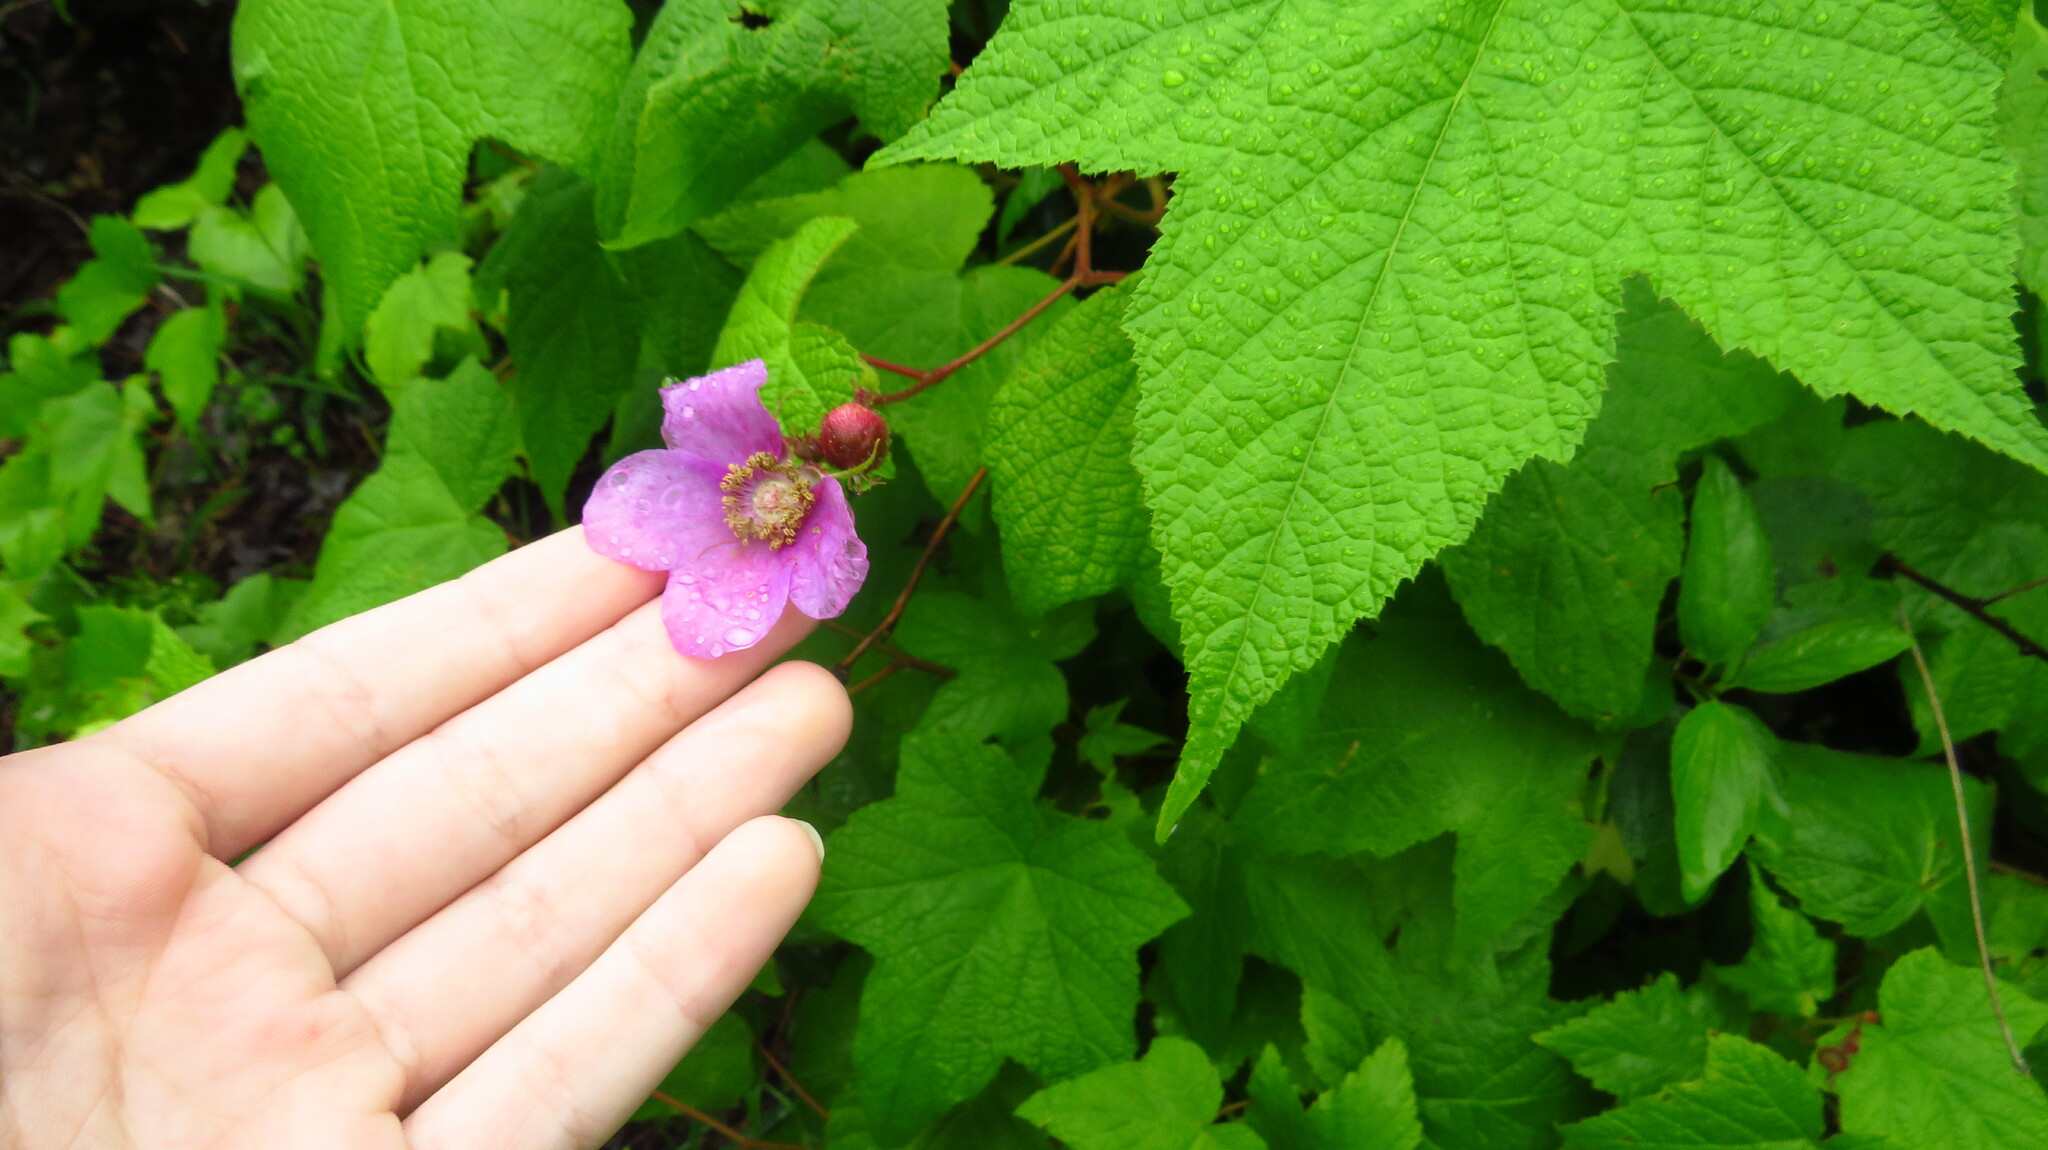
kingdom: Plantae
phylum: Tracheophyta
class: Magnoliopsida
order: Rosales
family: Rosaceae
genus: Rubus
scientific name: Rubus odoratus
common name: Purple-flowered raspberry
